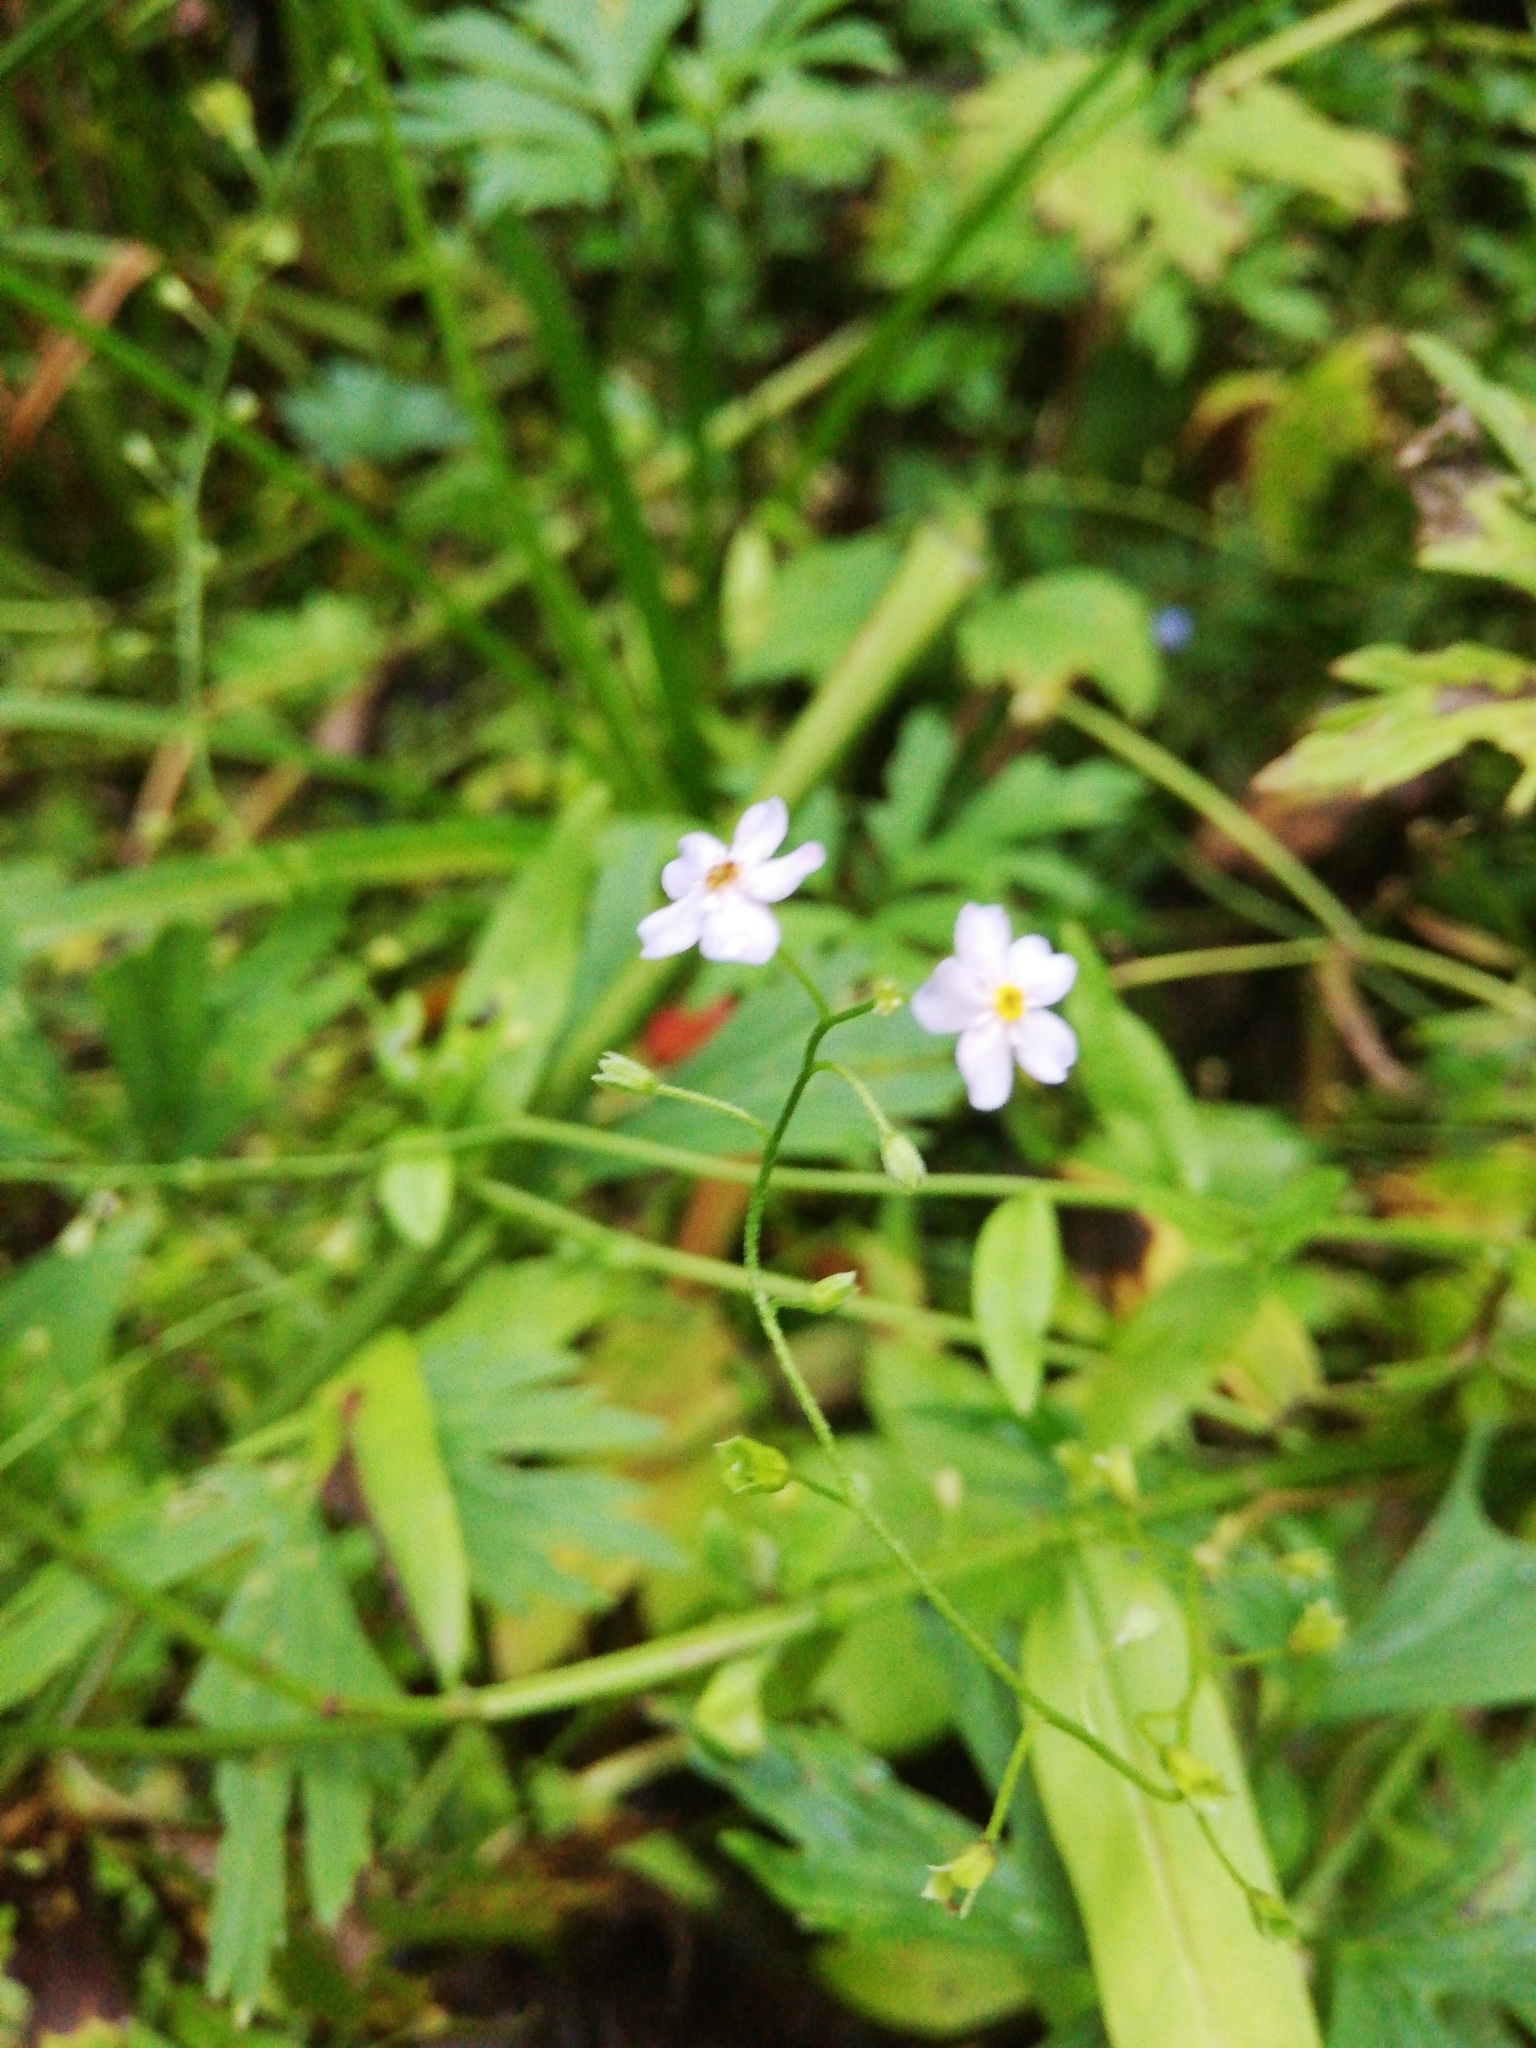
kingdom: Plantae
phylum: Tracheophyta
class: Magnoliopsida
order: Boraginales
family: Boraginaceae
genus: Myosotis
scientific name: Myosotis scorpioides
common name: Water forget-me-not
